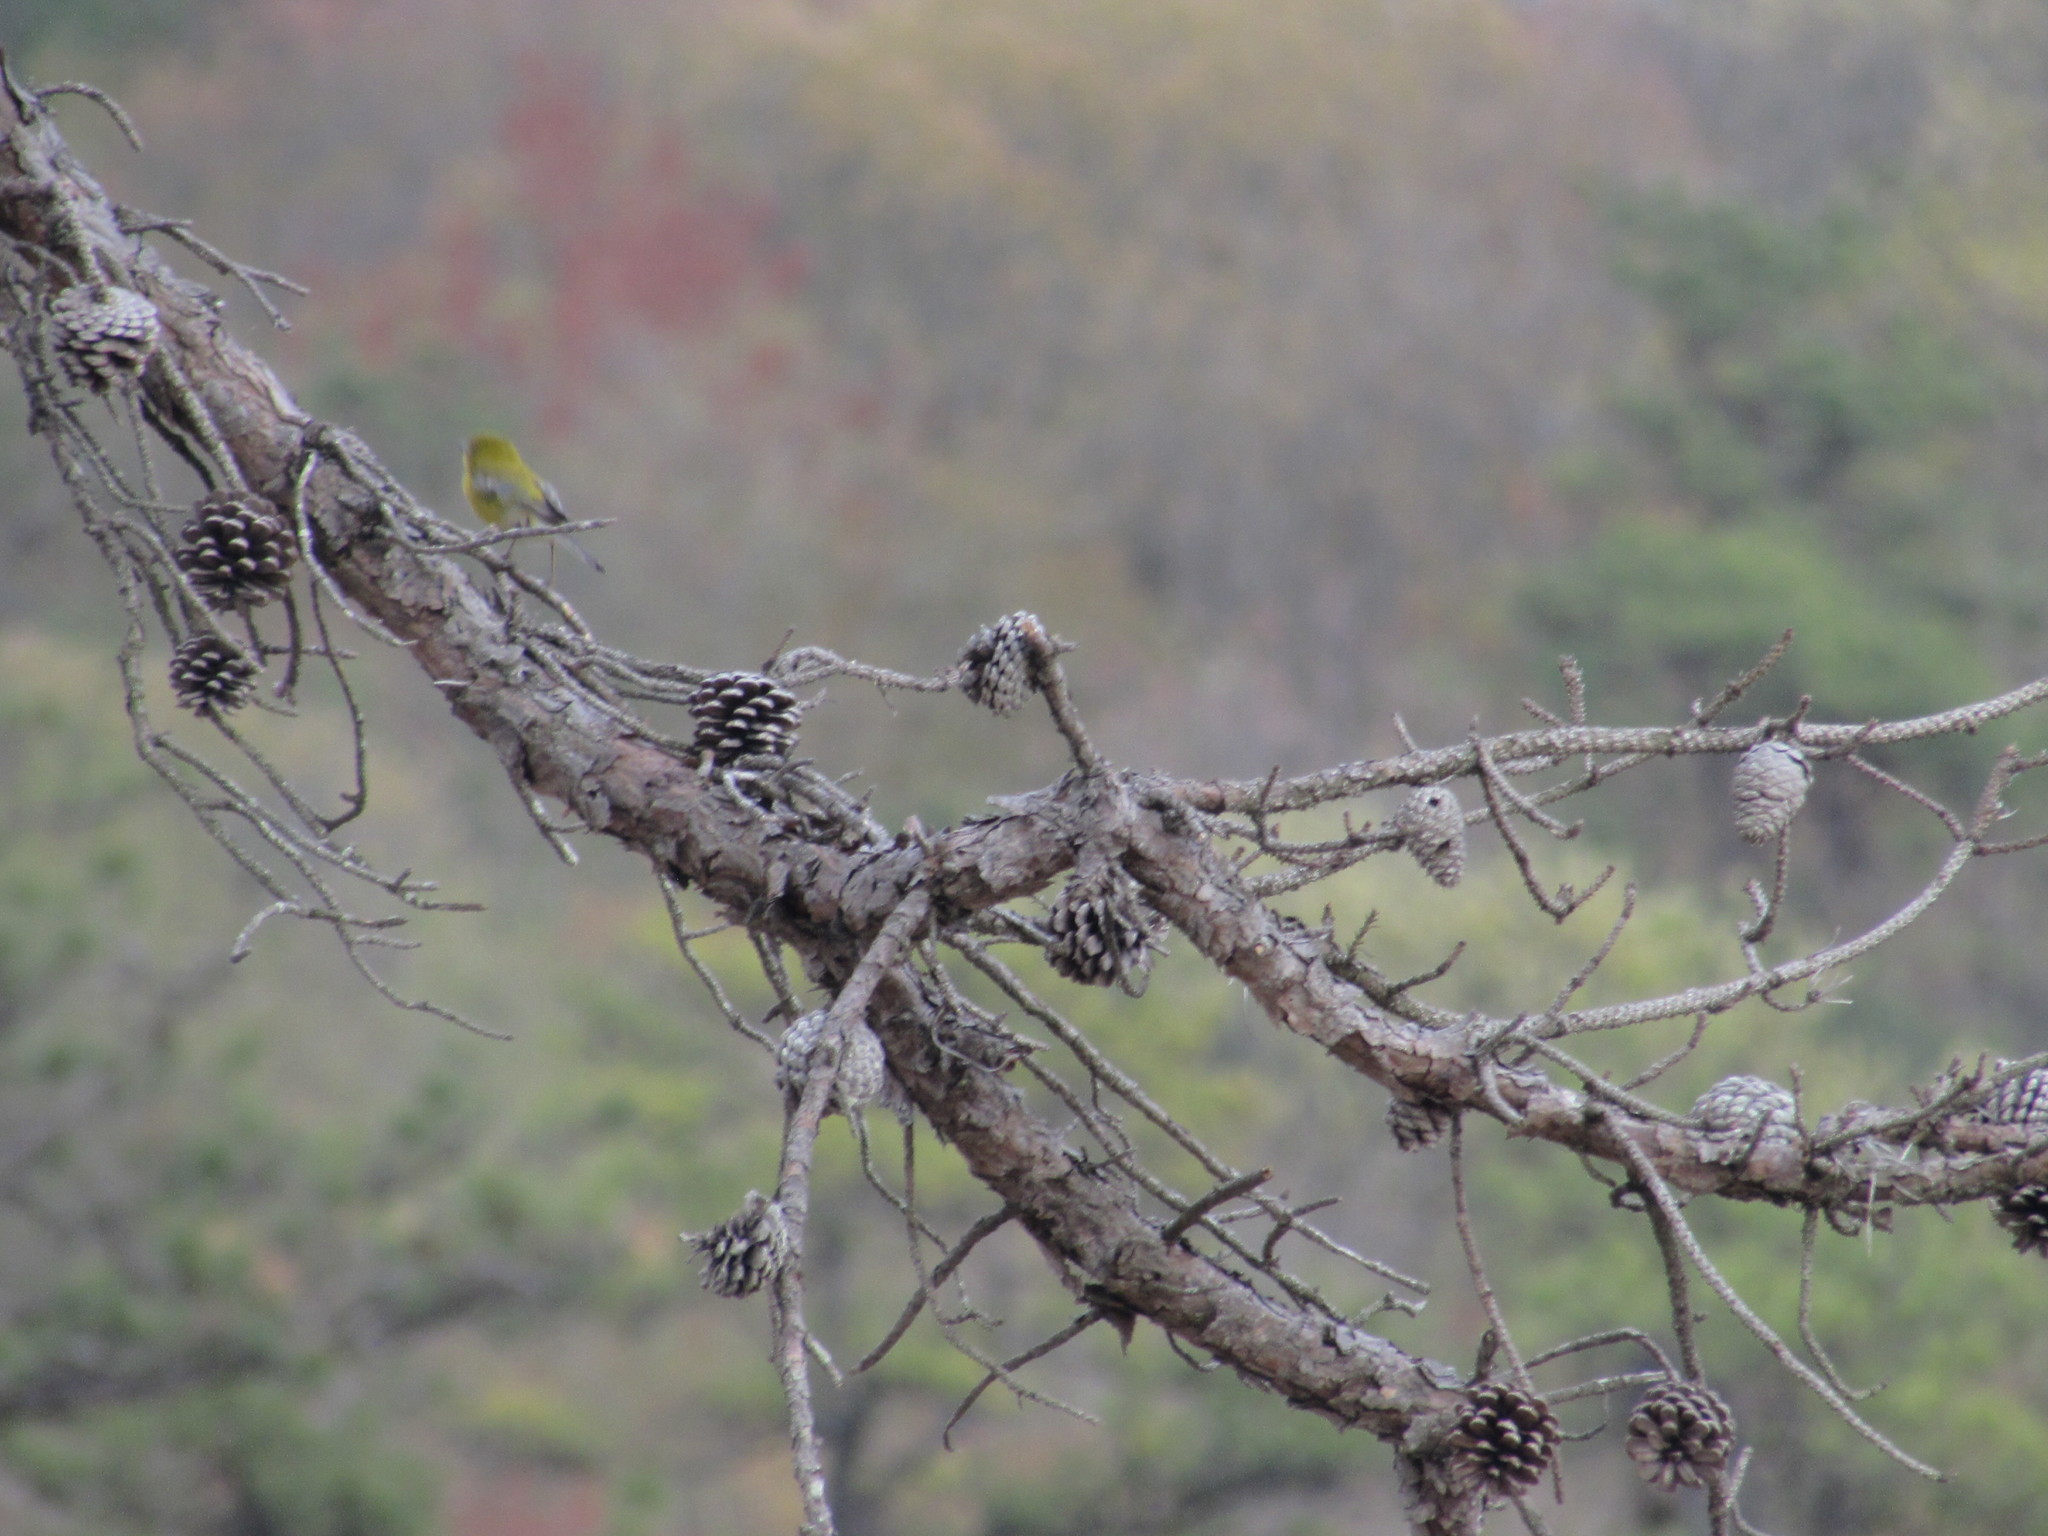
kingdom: Animalia
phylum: Chordata
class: Aves
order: Passeriformes
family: Parulidae
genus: Setophaga
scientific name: Setophaga pinus
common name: Pine warbler
